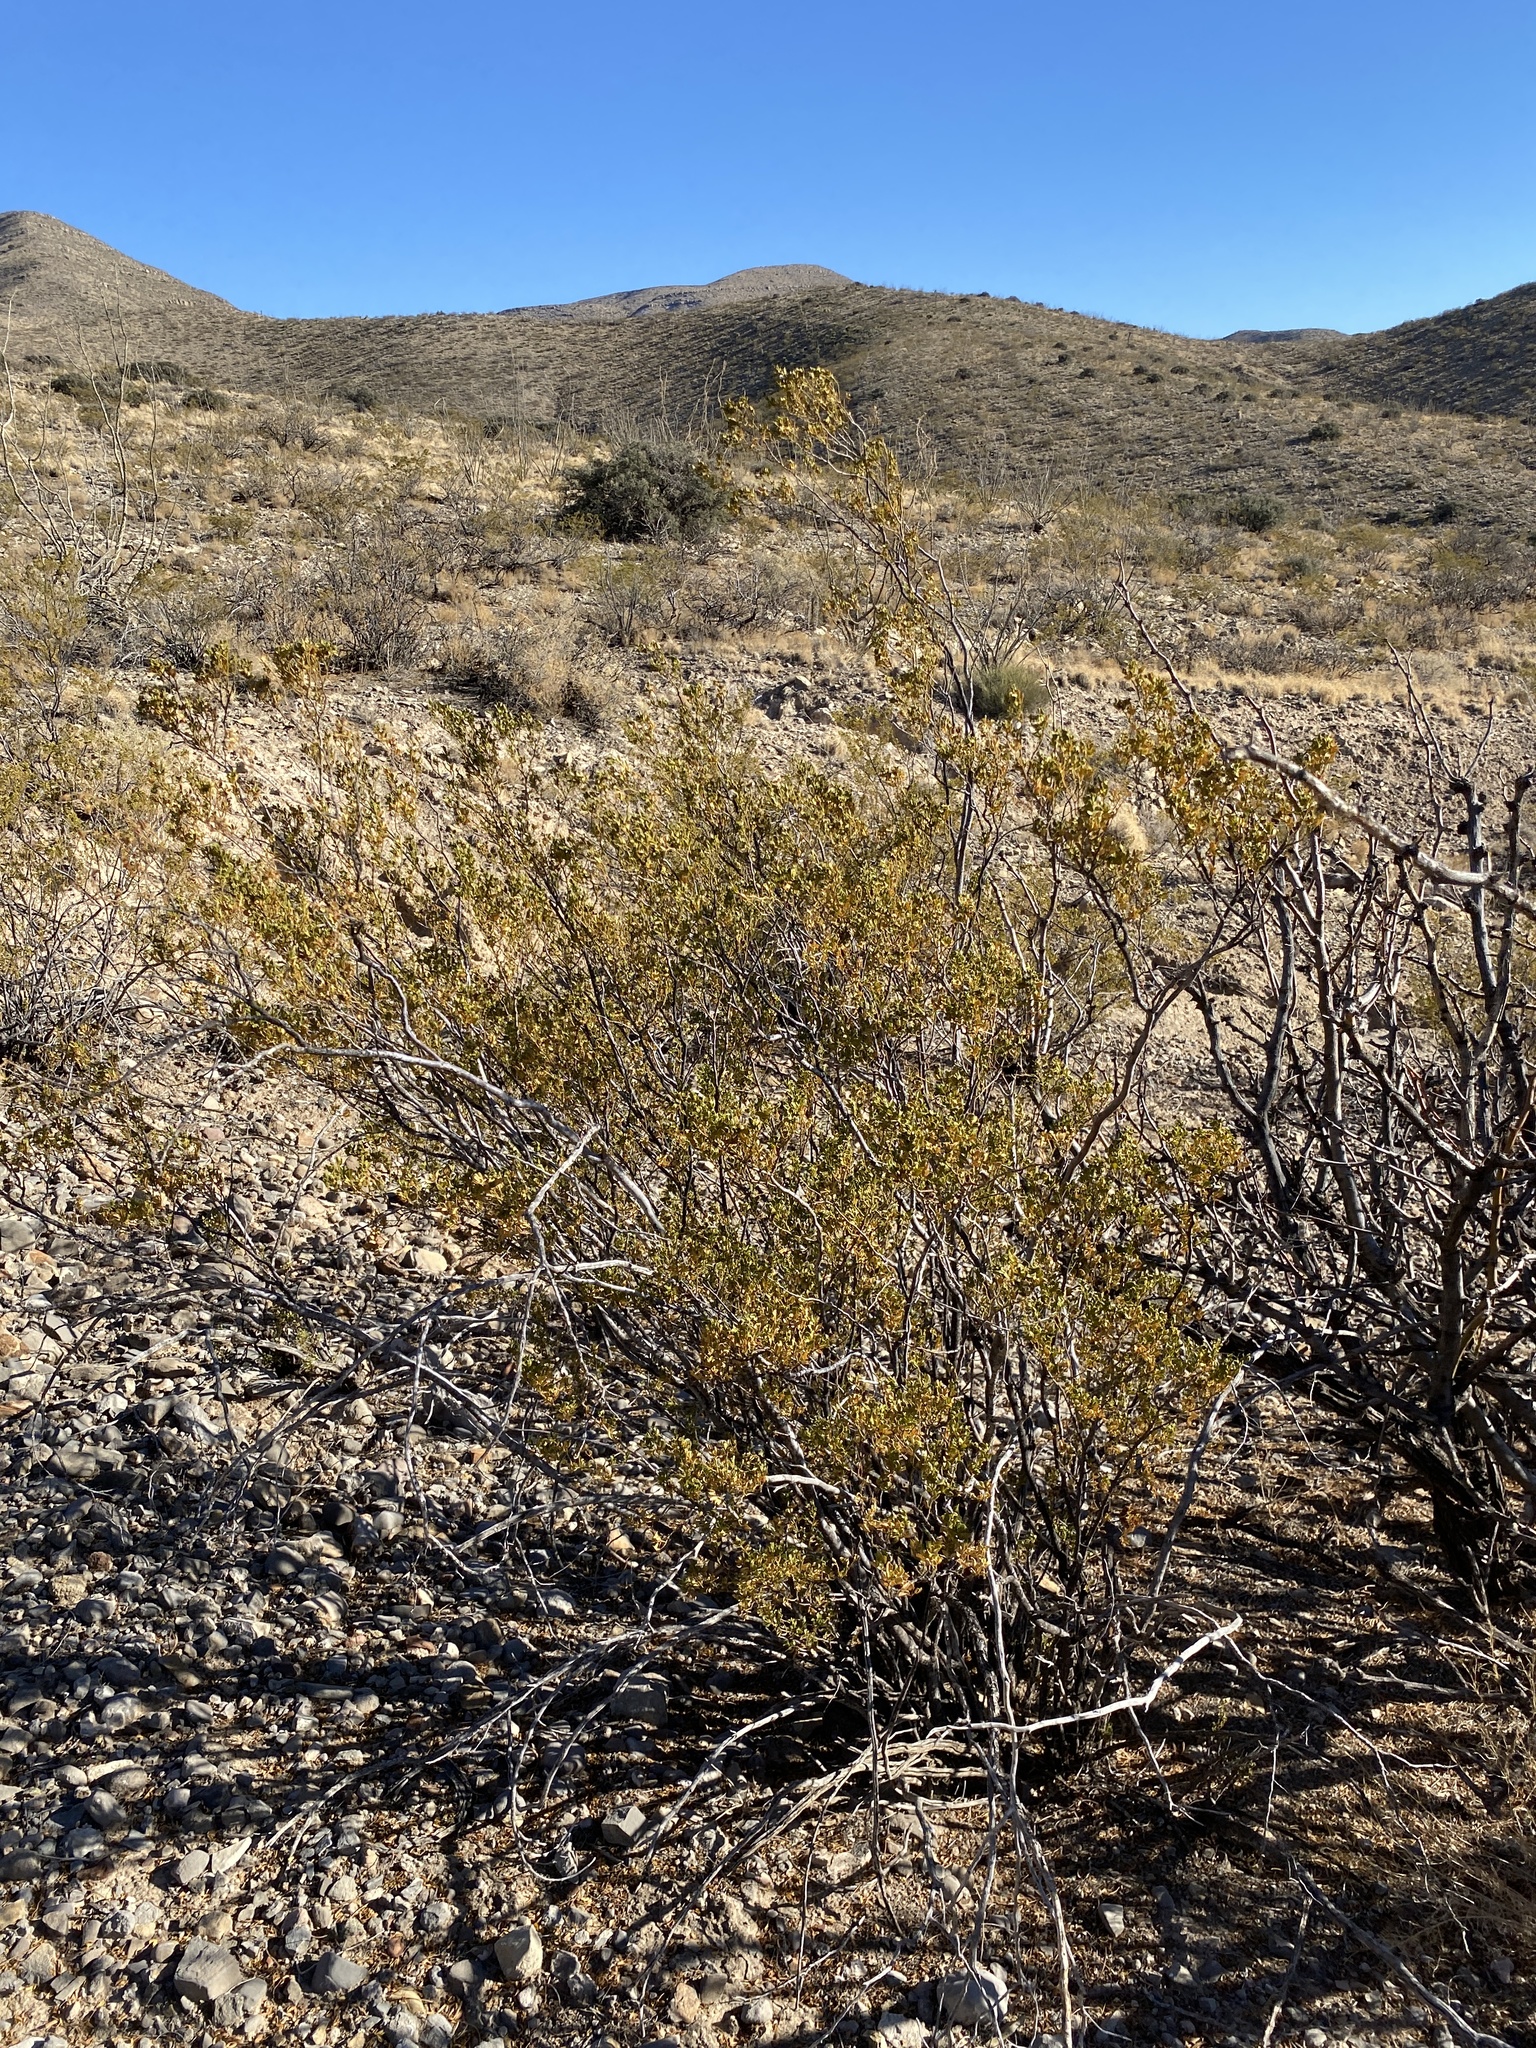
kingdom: Plantae
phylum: Tracheophyta
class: Magnoliopsida
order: Zygophyllales
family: Zygophyllaceae
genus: Larrea
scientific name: Larrea tridentata
